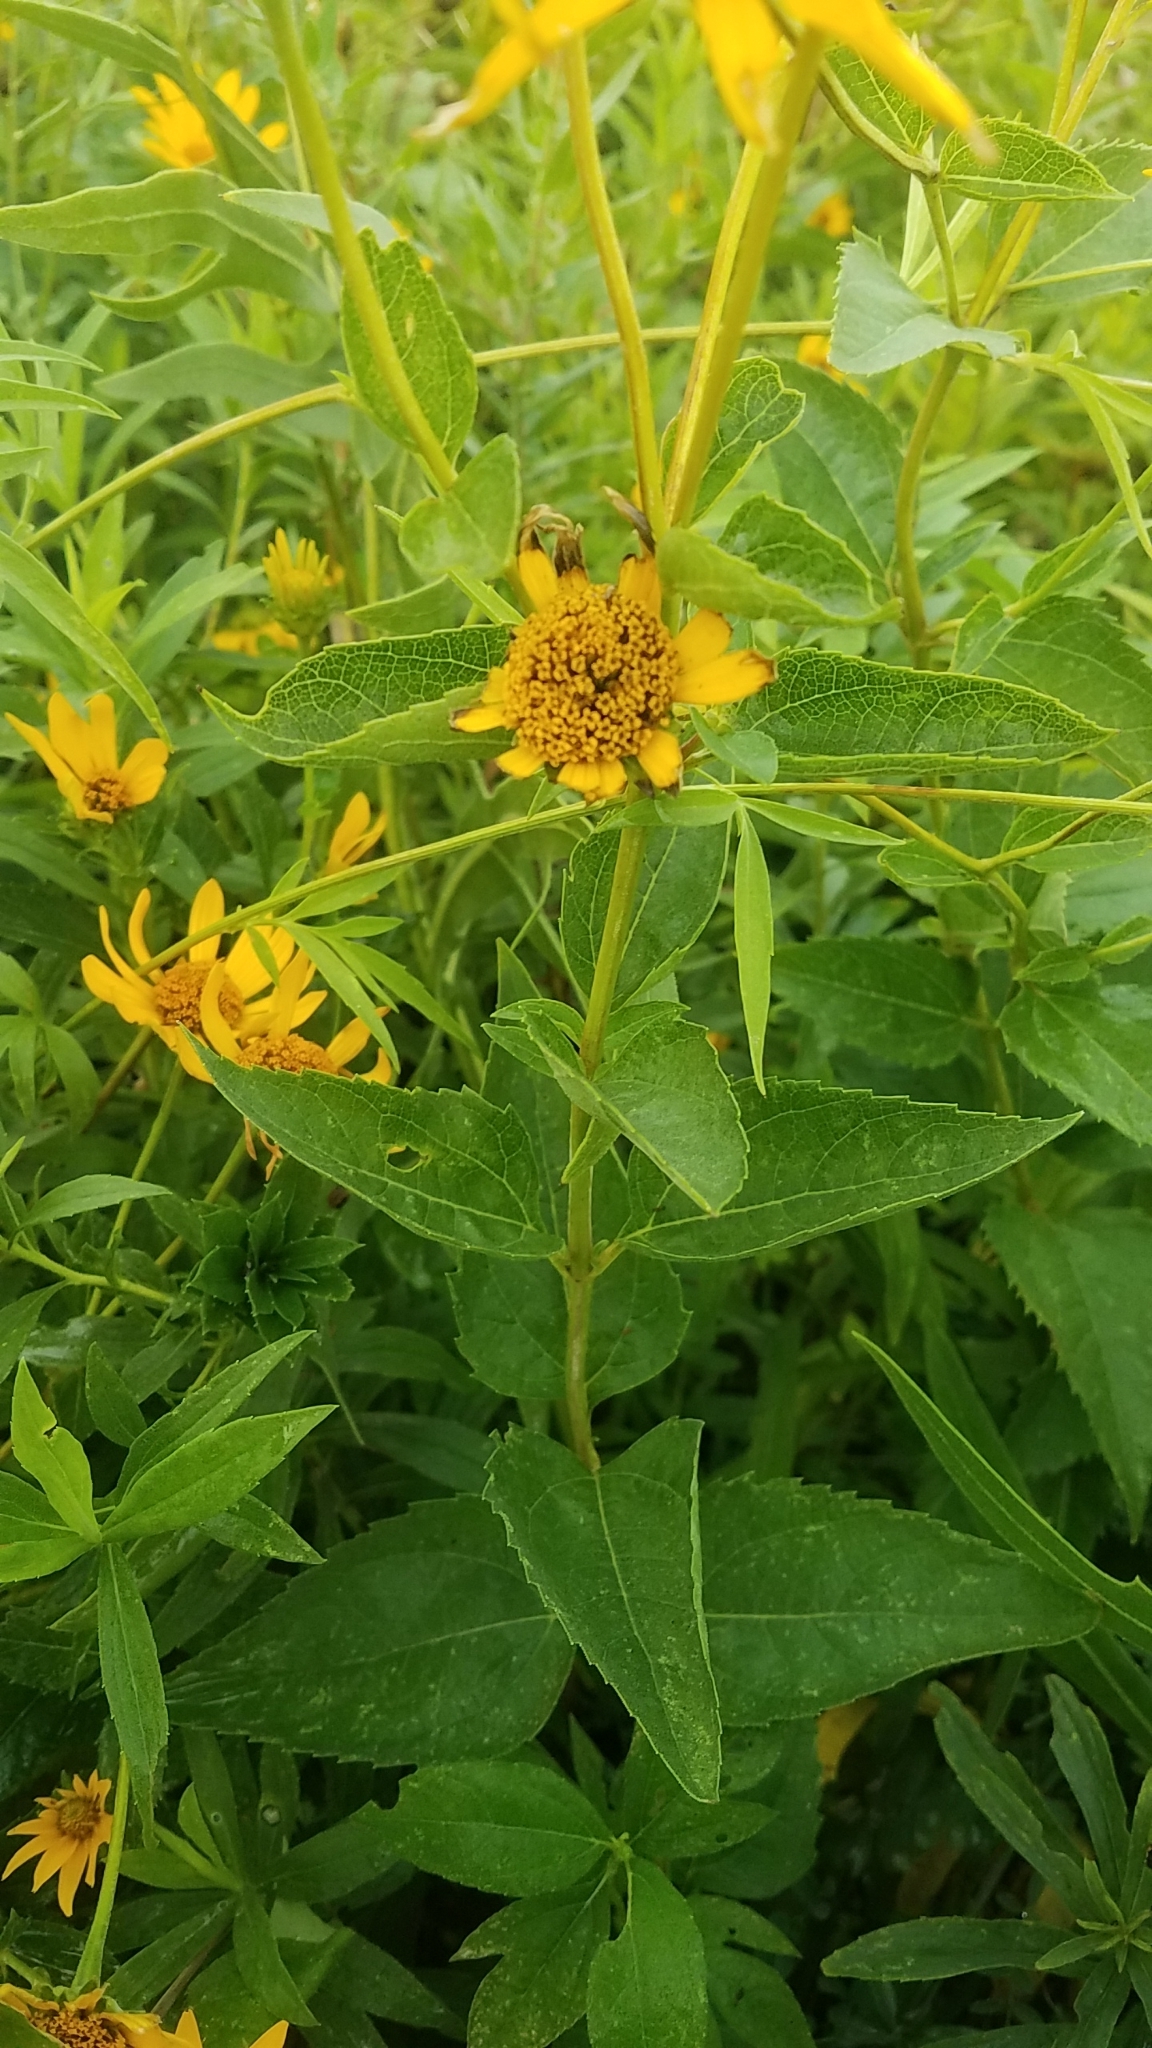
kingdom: Plantae
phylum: Tracheophyta
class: Magnoliopsida
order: Asterales
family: Asteraceae
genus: Heliopsis
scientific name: Heliopsis helianthoides
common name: False sunflower
